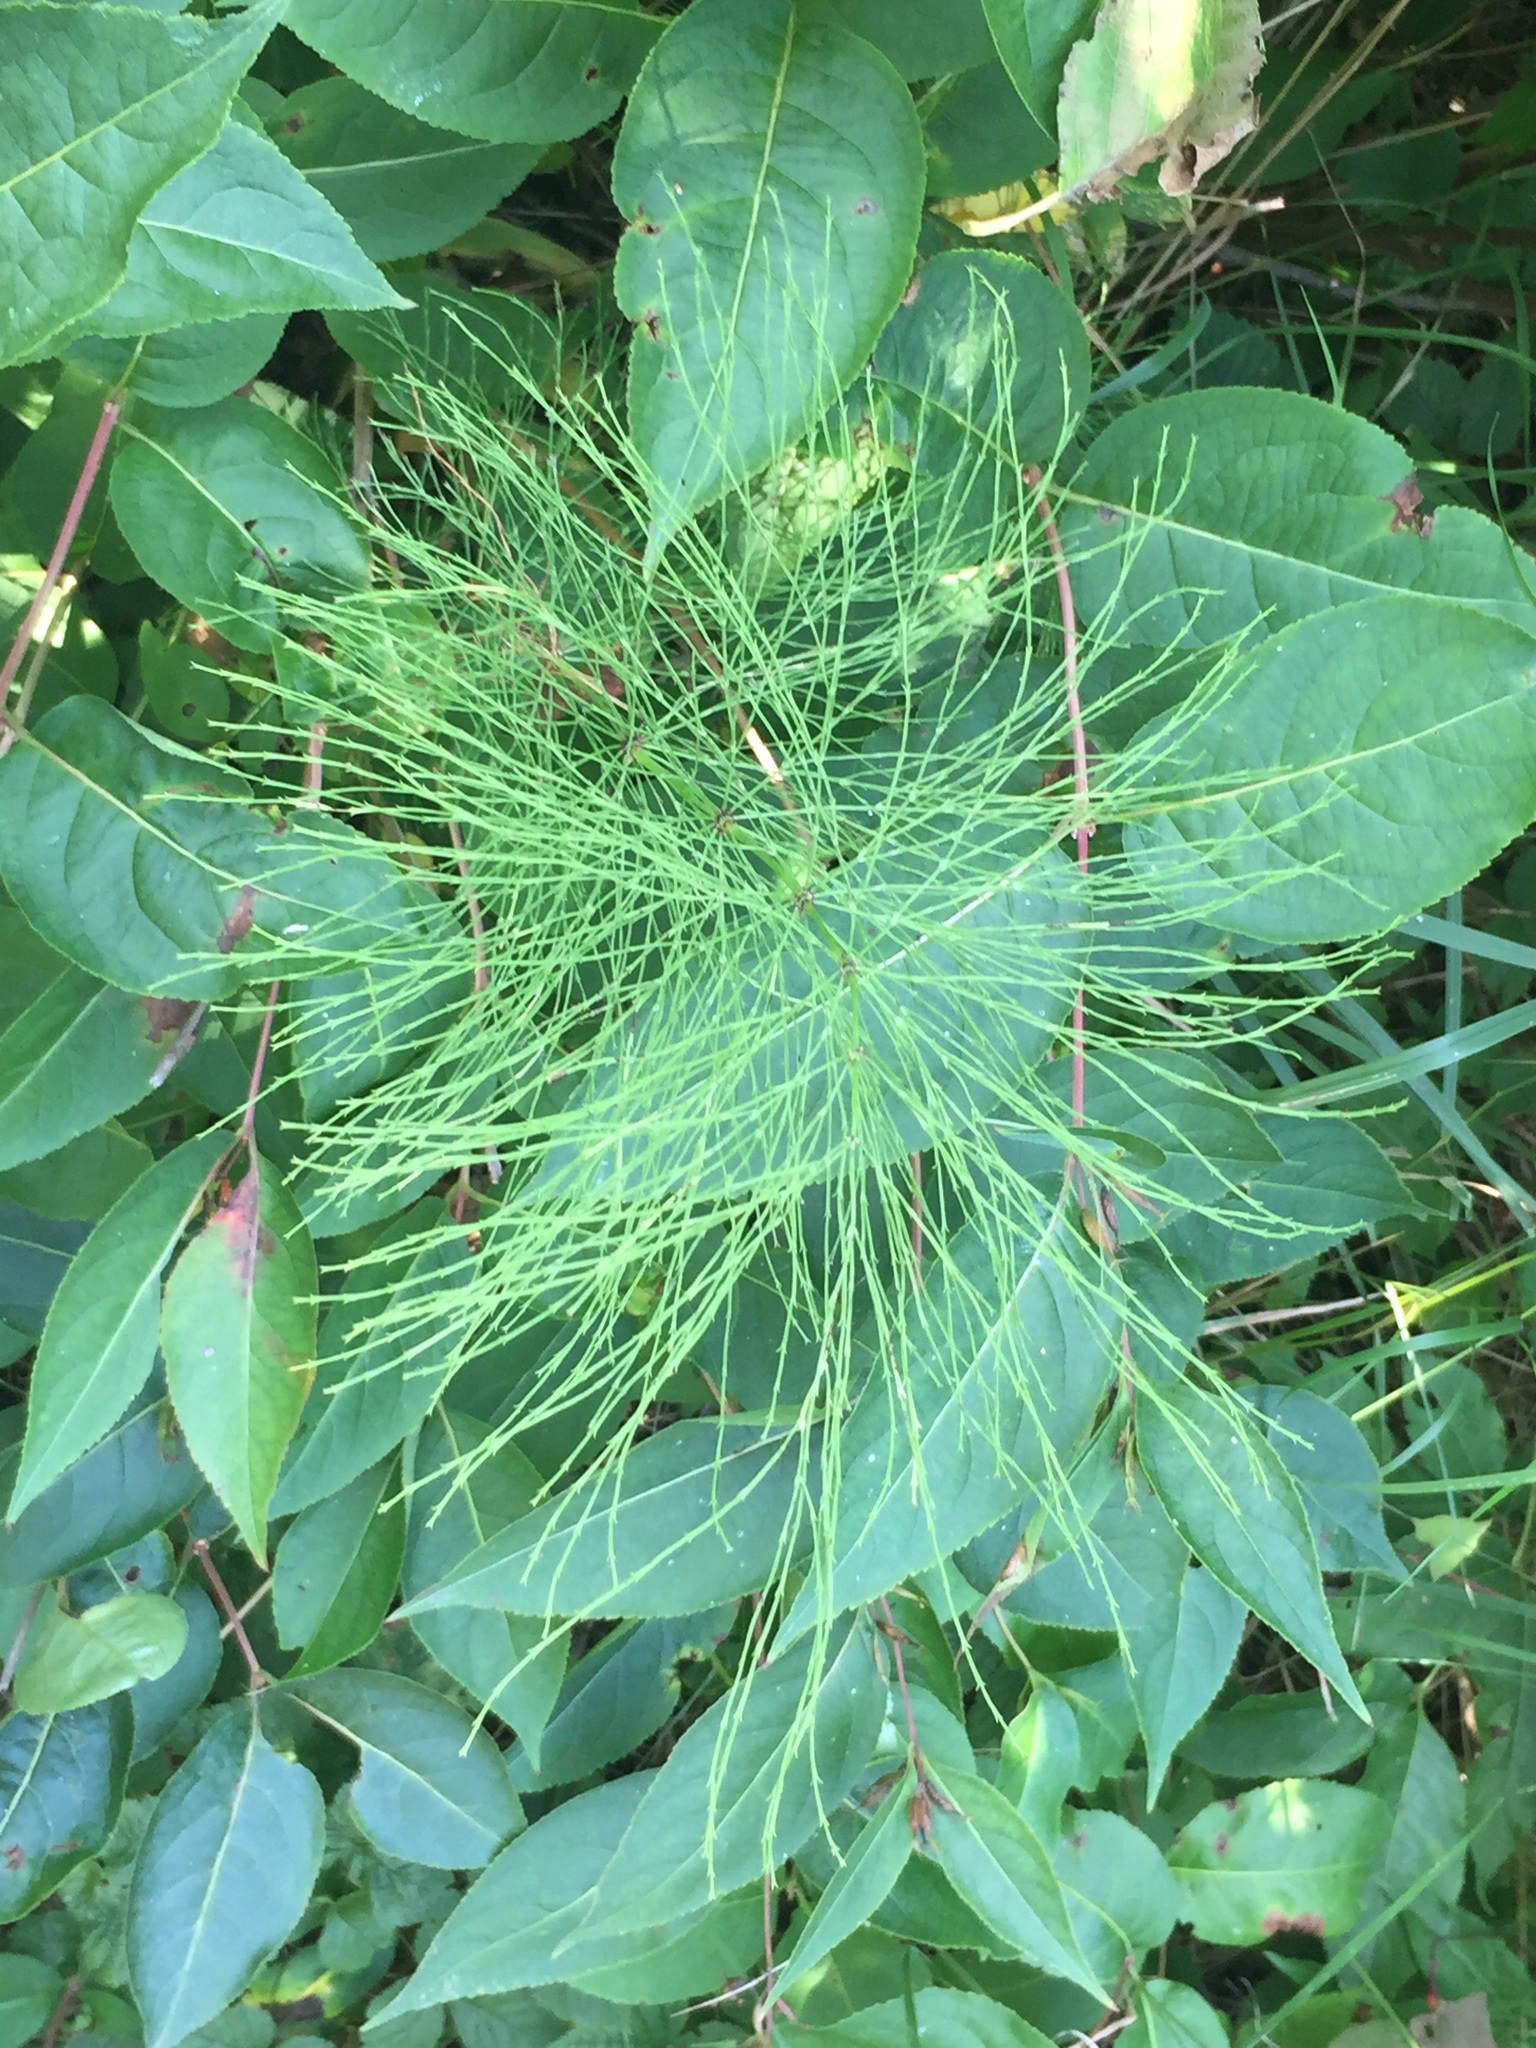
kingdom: Plantae
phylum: Tracheophyta
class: Polypodiopsida
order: Equisetales
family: Equisetaceae
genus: Equisetum
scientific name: Equisetum sylvaticum
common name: Wood horsetail
